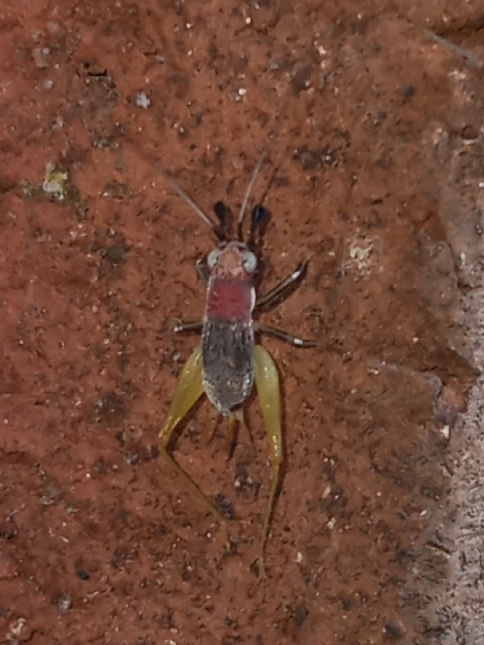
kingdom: Animalia
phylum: Arthropoda
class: Insecta
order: Orthoptera
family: Trigonidiidae
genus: Phyllopalpus
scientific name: Phyllopalpus pulchellus
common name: Handsome trig
